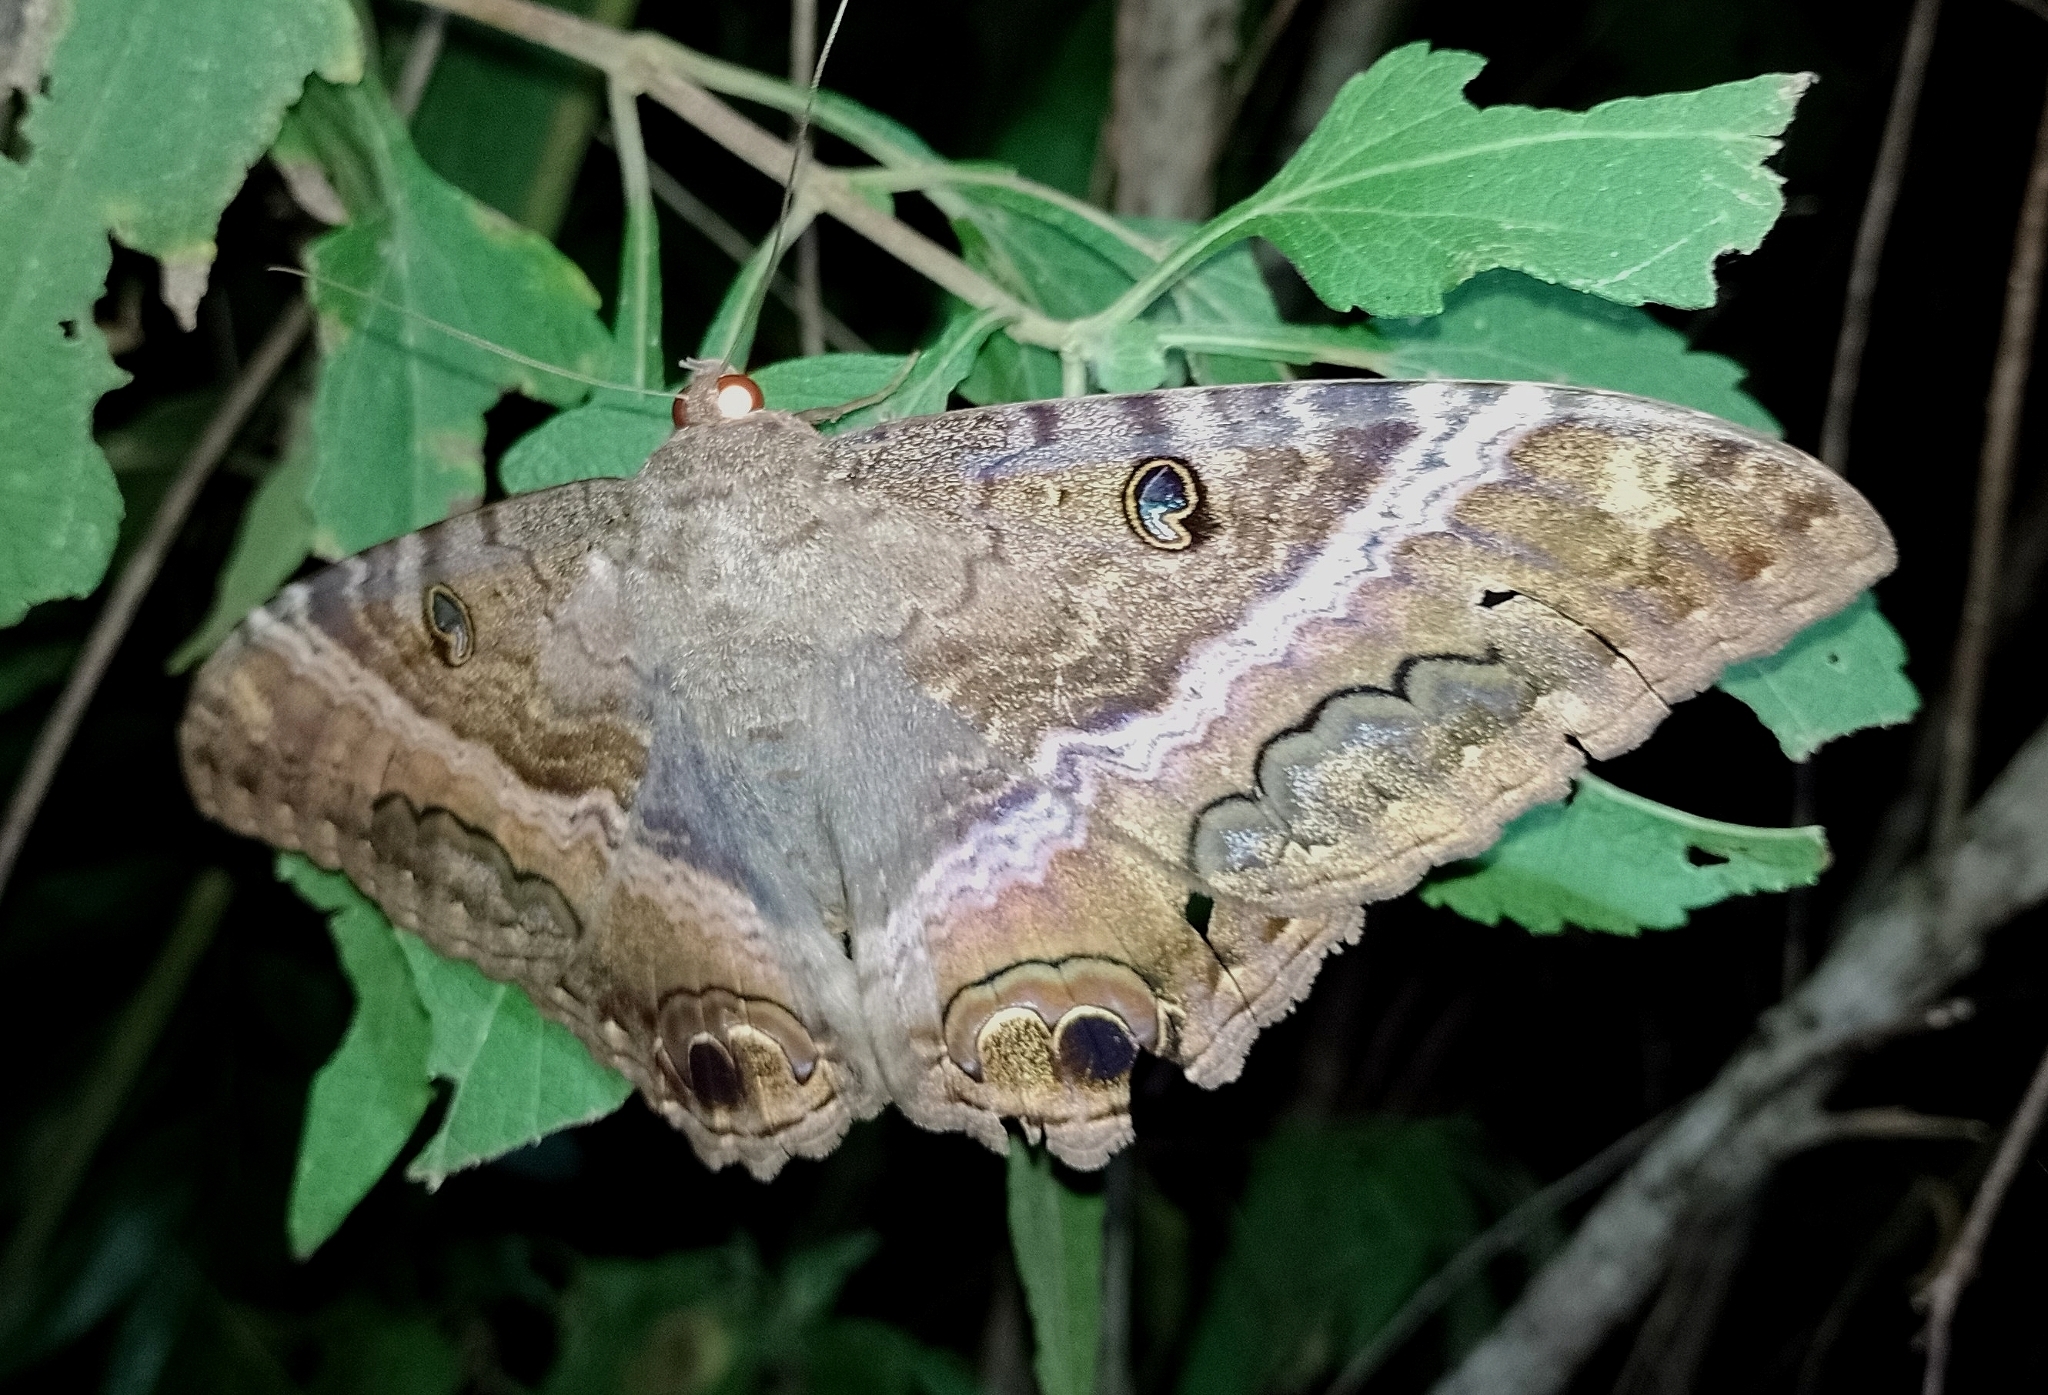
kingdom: Animalia
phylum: Arthropoda
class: Insecta
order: Lepidoptera
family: Erebidae
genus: Ascalapha
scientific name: Ascalapha odorata
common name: Black witch
